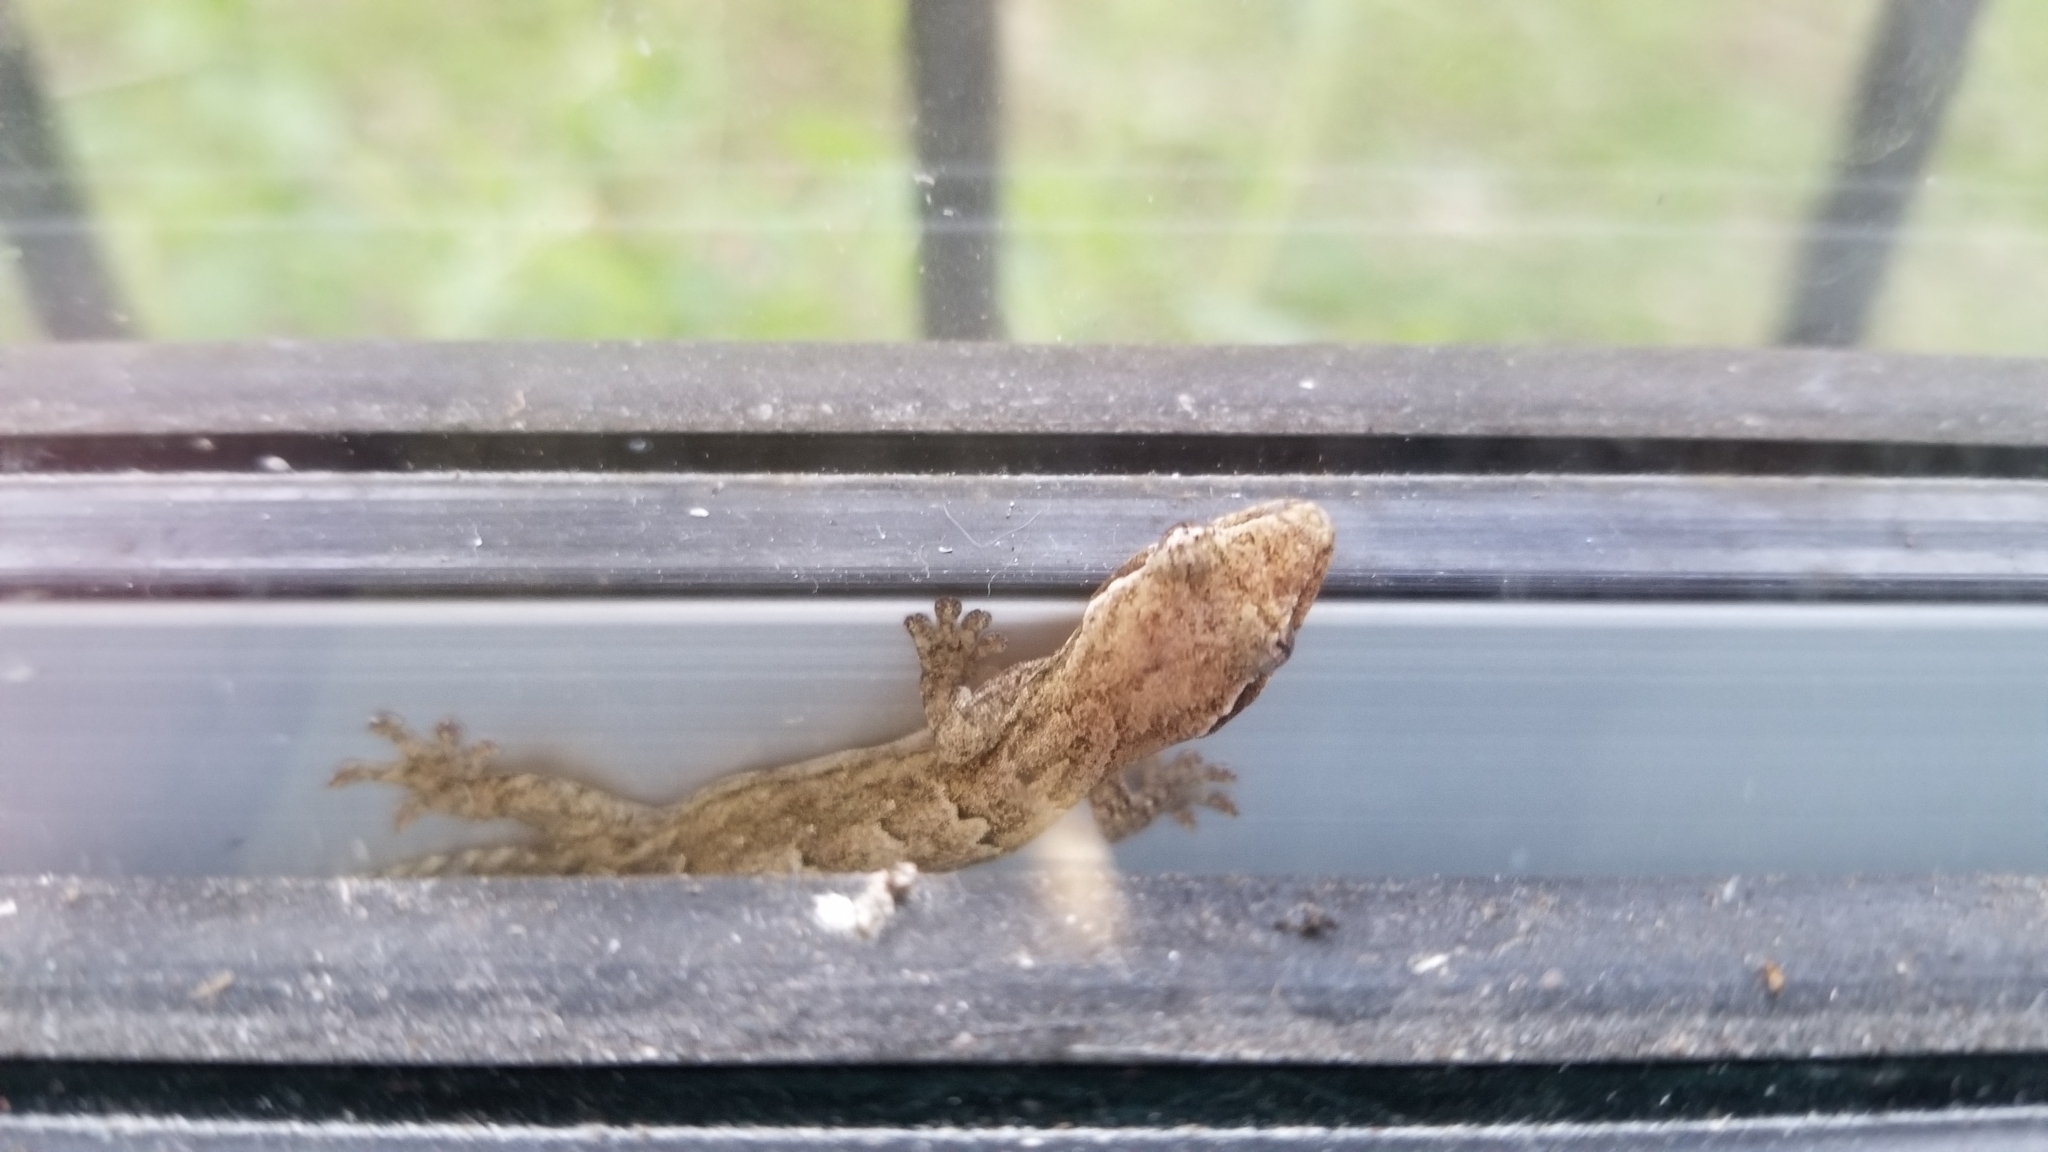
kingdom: Animalia
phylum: Chordata
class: Squamata
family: Gekkonidae
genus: Lepidodactylus
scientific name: Lepidodactylus lugubris
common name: Mourning gecko
